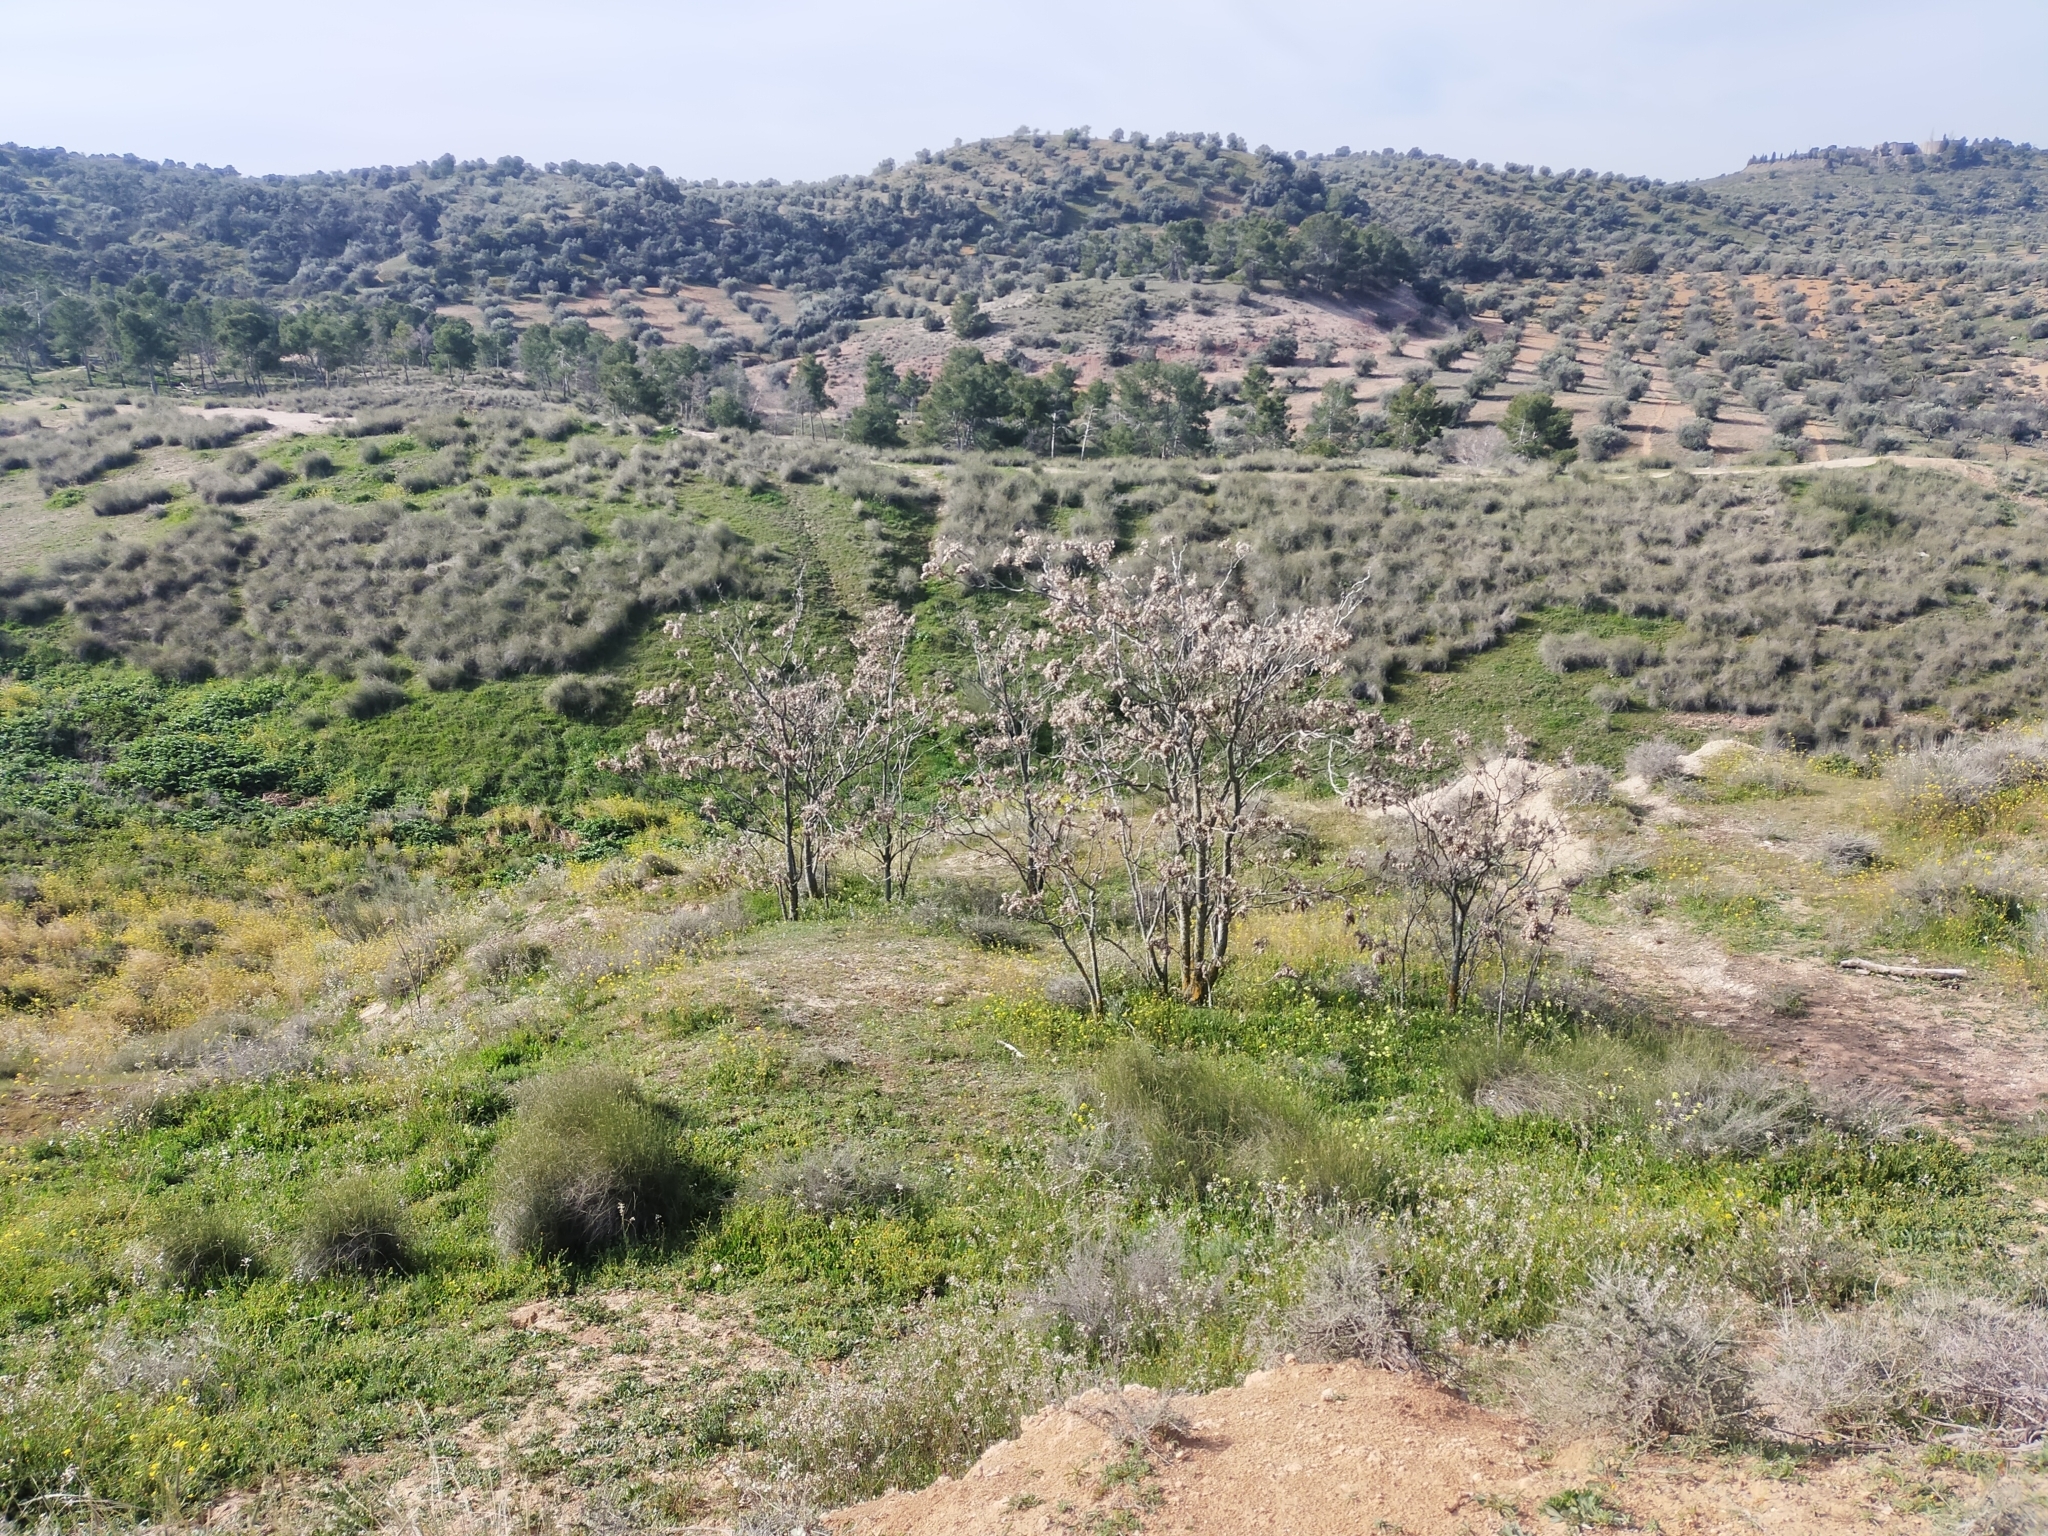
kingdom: Plantae
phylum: Tracheophyta
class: Magnoliopsida
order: Sapindales
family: Simaroubaceae
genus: Ailanthus
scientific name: Ailanthus altissima
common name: Tree-of-heaven
